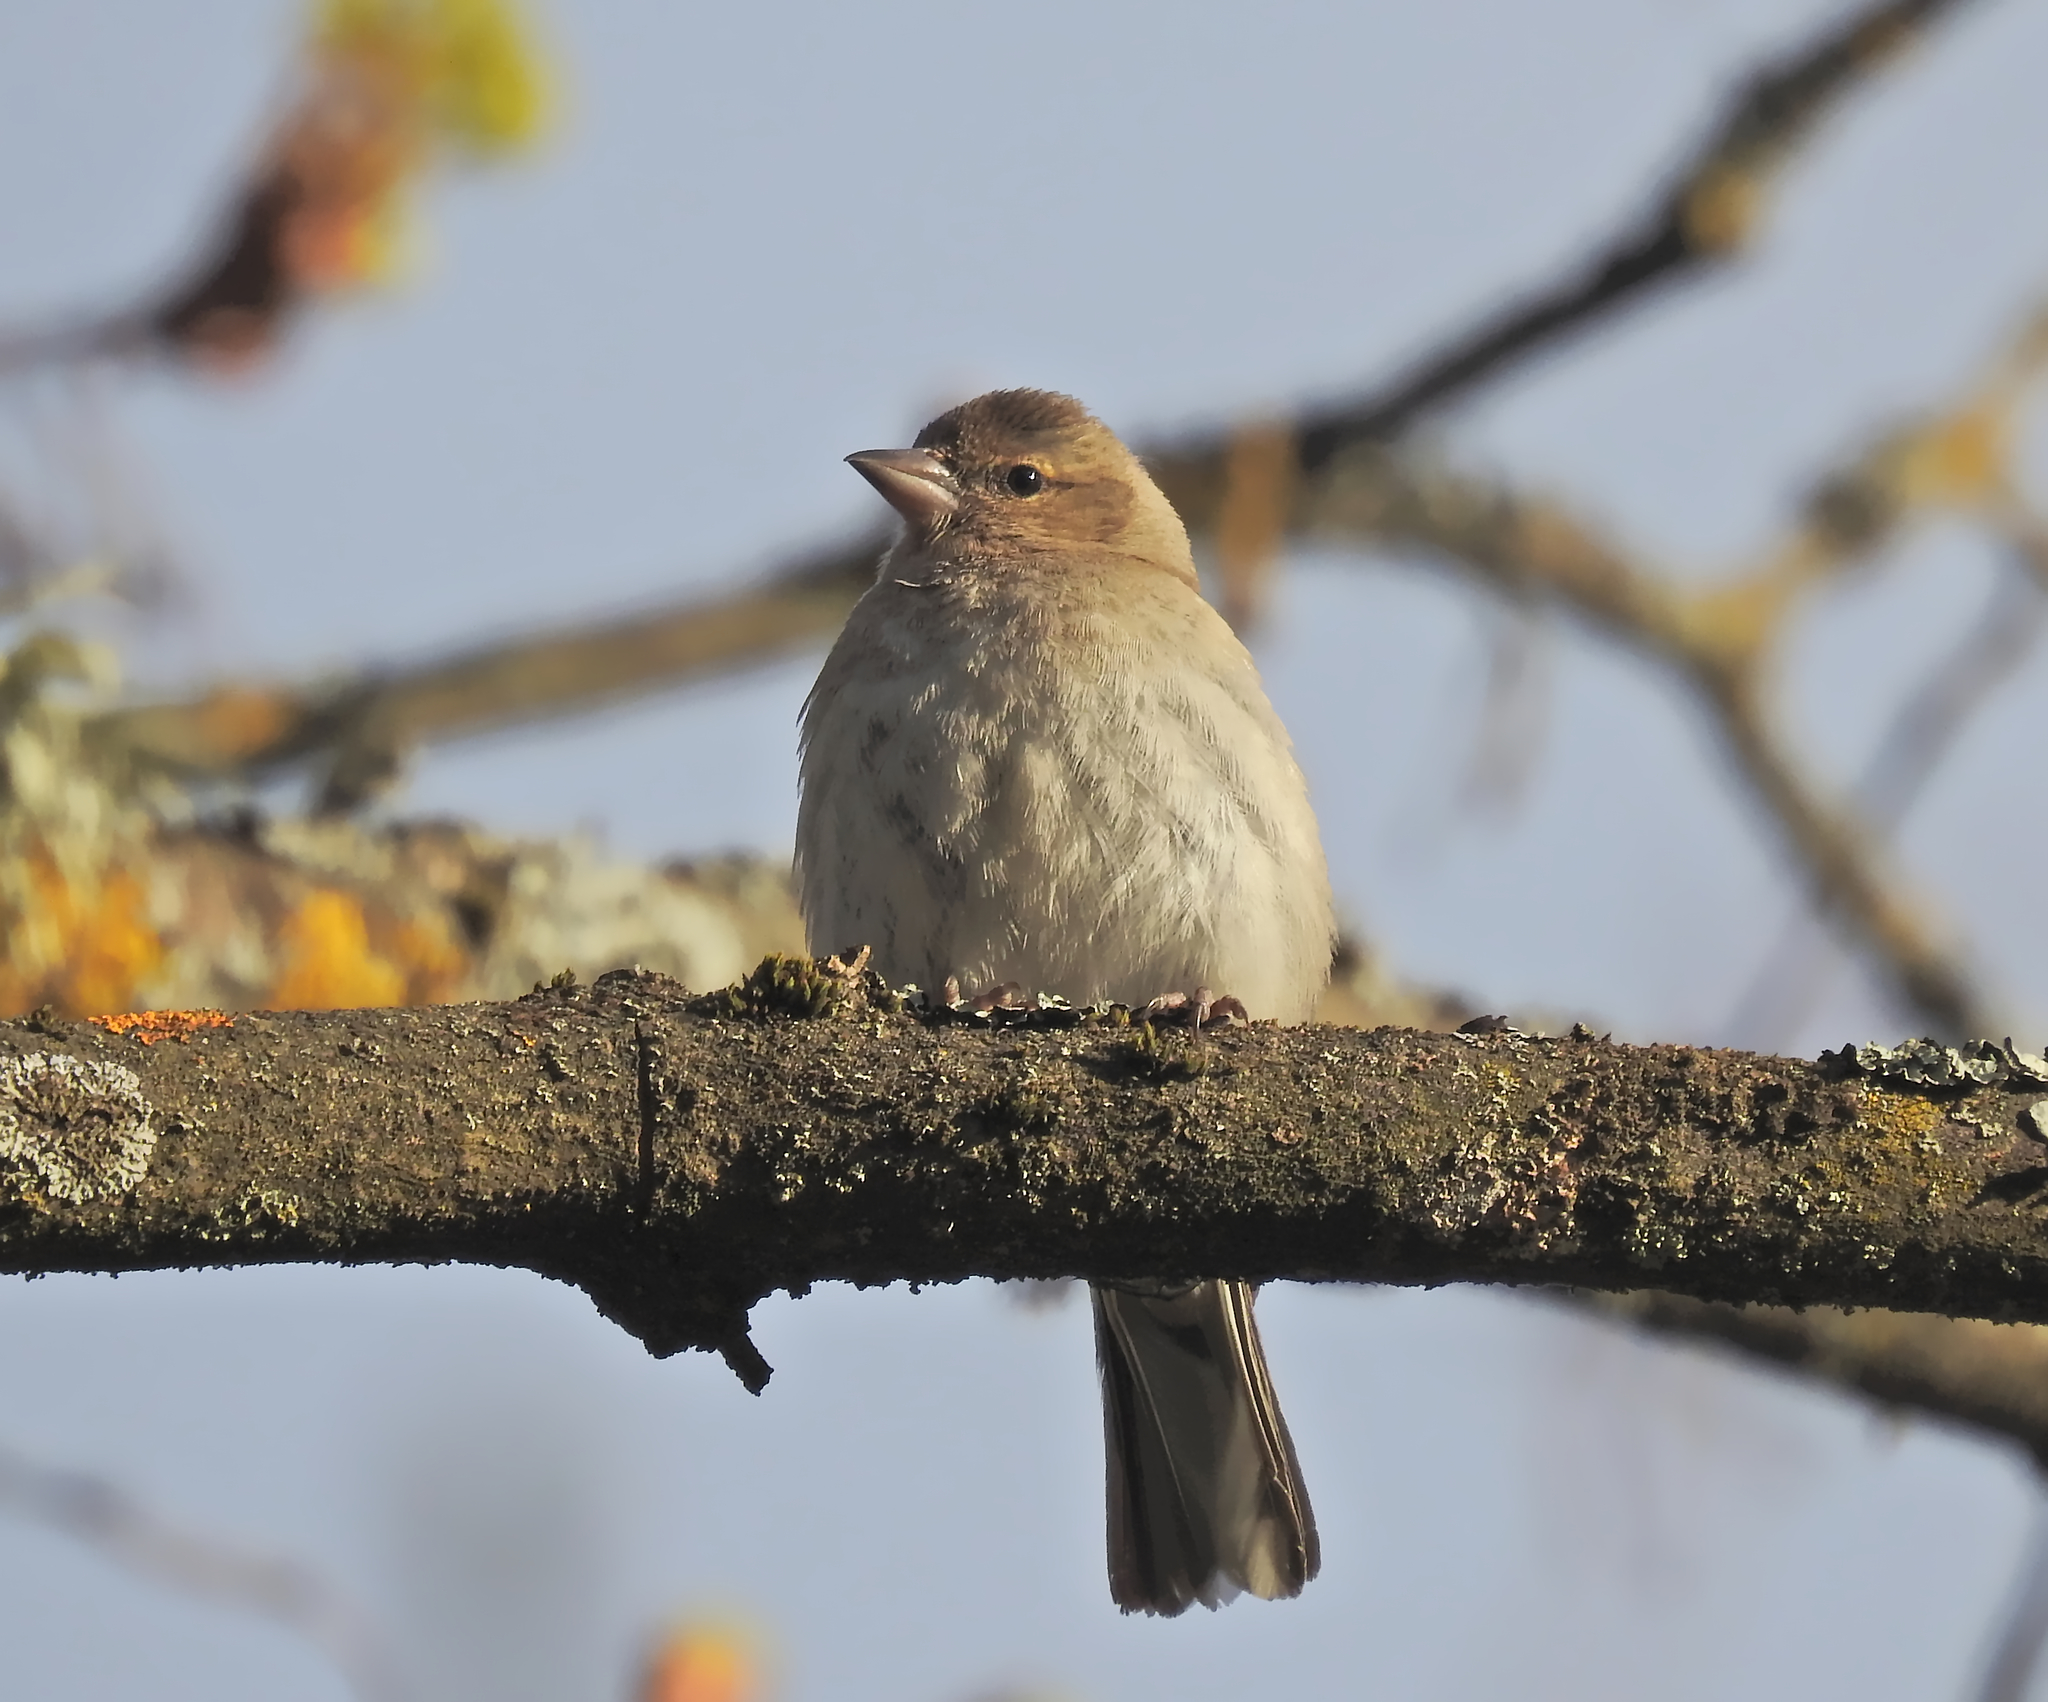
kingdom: Animalia
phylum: Chordata
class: Aves
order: Passeriformes
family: Fringillidae
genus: Fringilla
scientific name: Fringilla coelebs
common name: Common chaffinch
